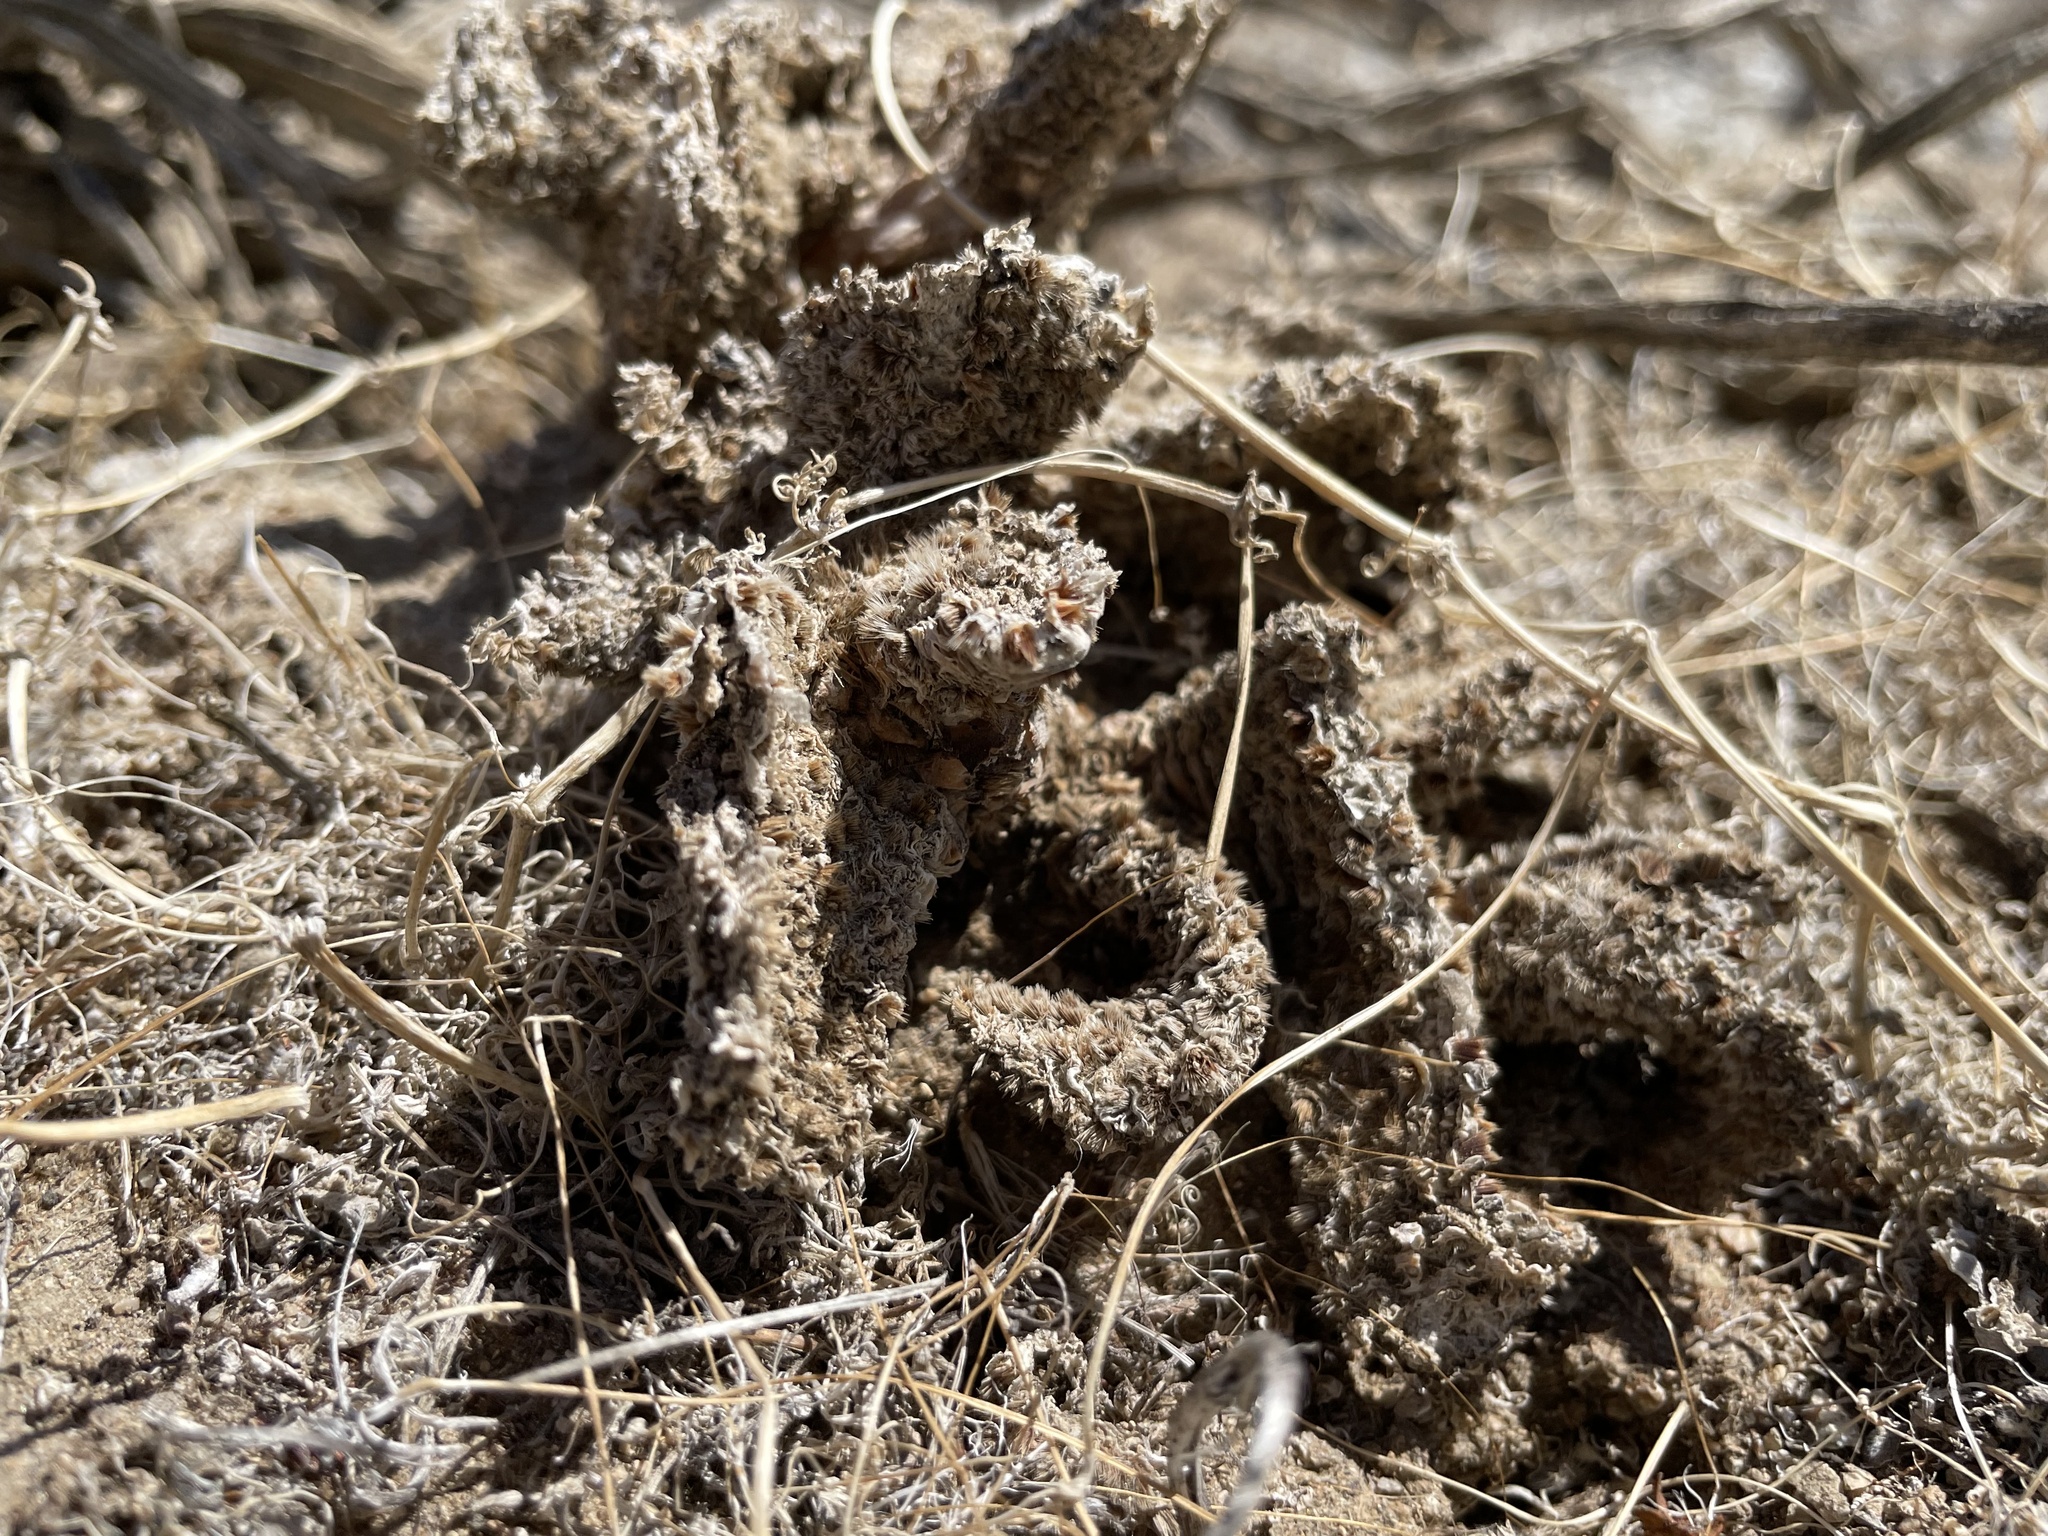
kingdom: Plantae
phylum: Tracheophyta
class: Magnoliopsida
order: Caryophyllales
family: Cactaceae
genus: Opuntia
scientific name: Opuntia basilaris
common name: Beavertail prickly-pear
